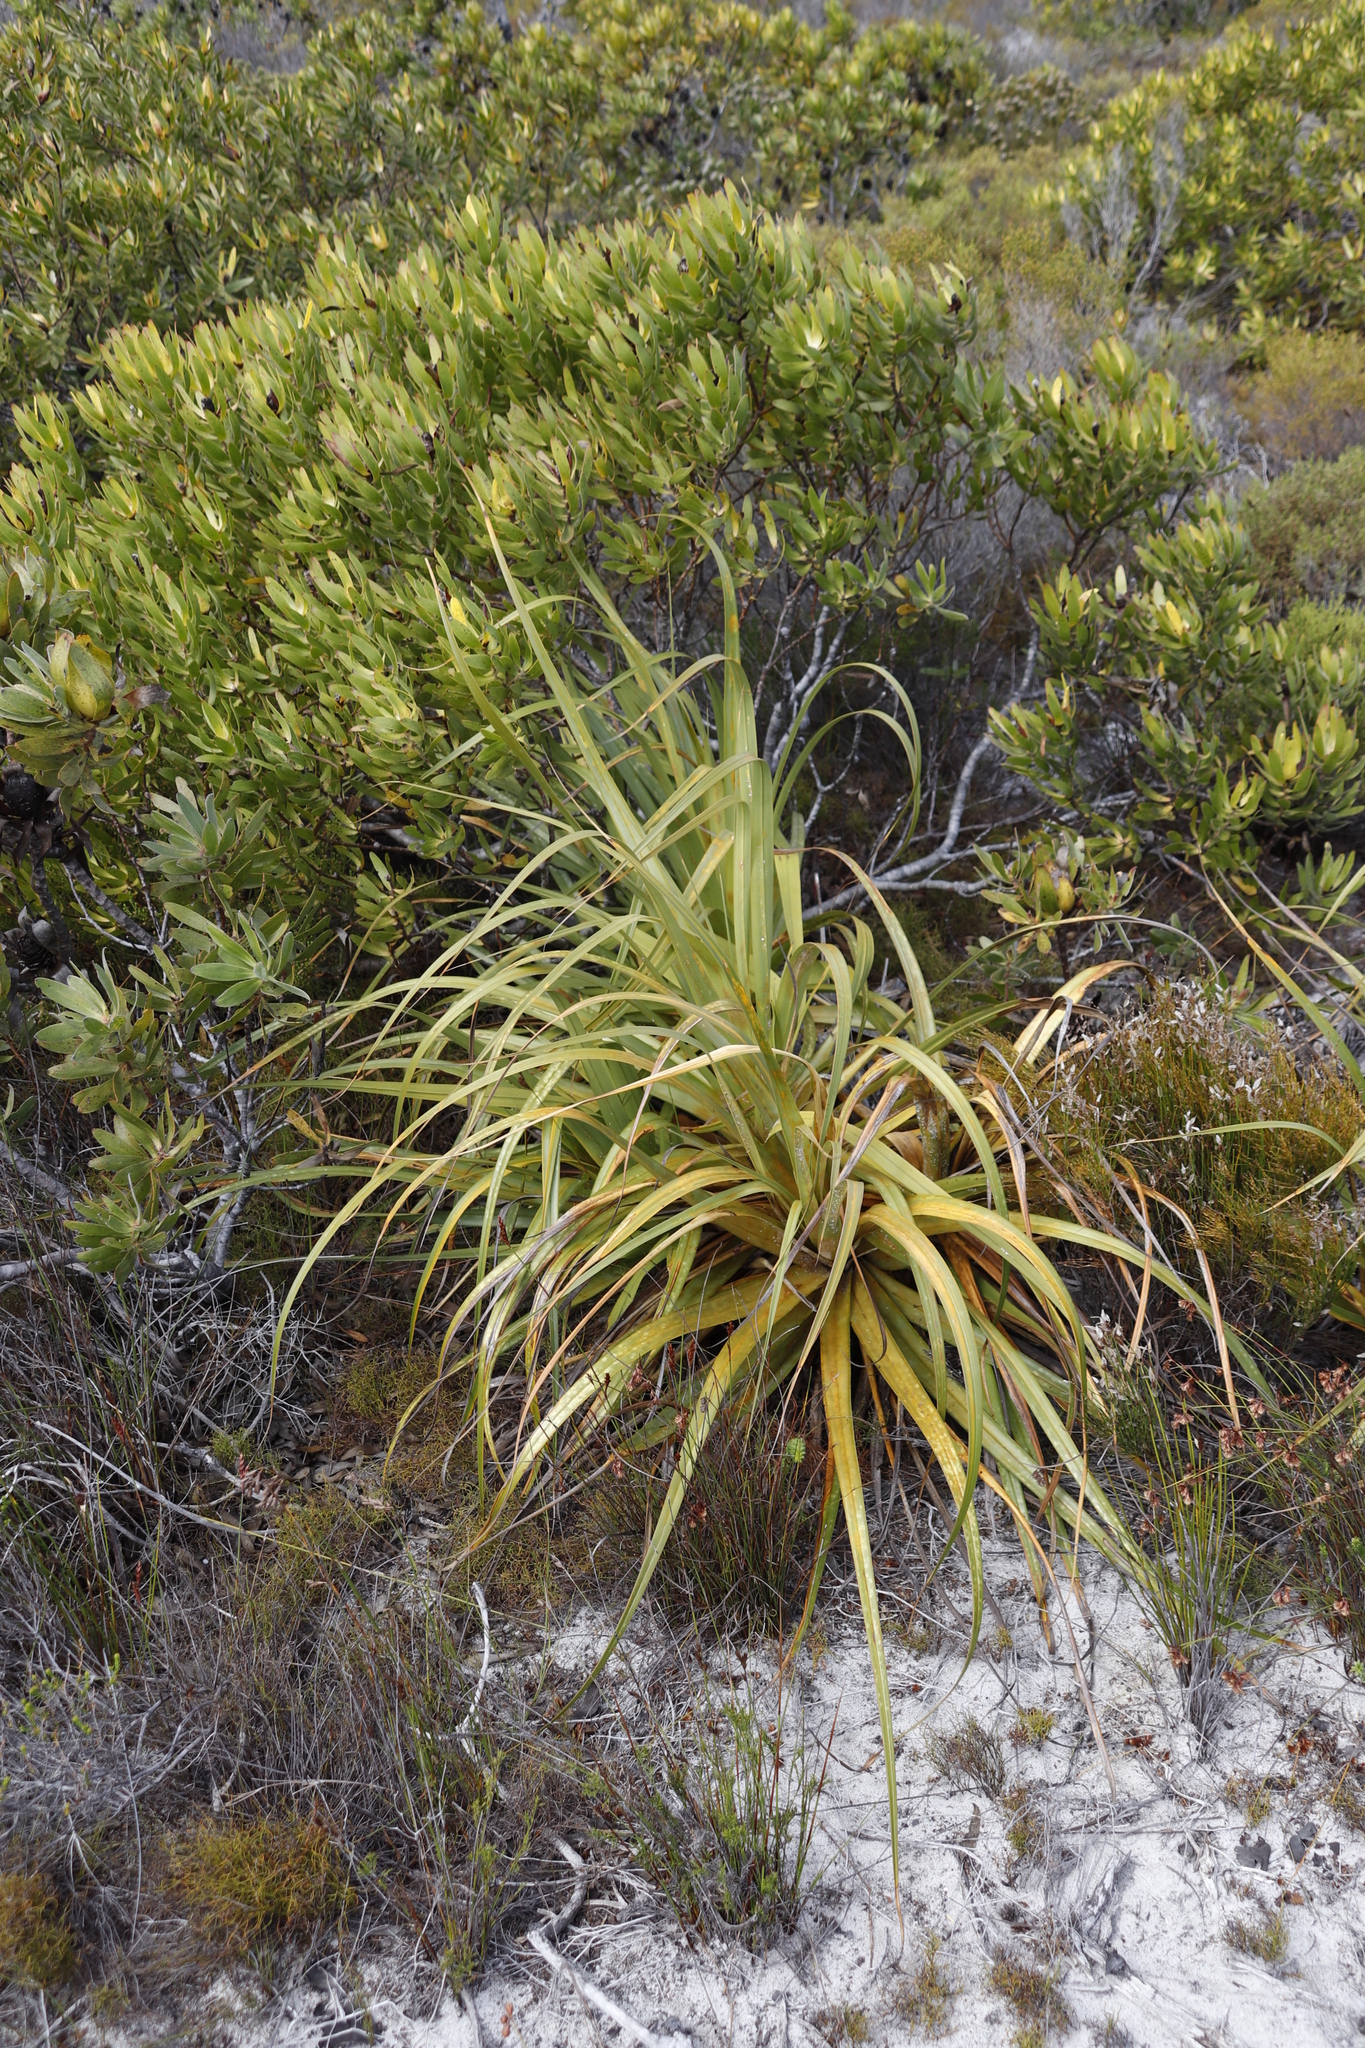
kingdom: Plantae
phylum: Tracheophyta
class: Liliopsida
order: Poales
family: Cyperaceae
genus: Tetraria
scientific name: Tetraria thermalis
